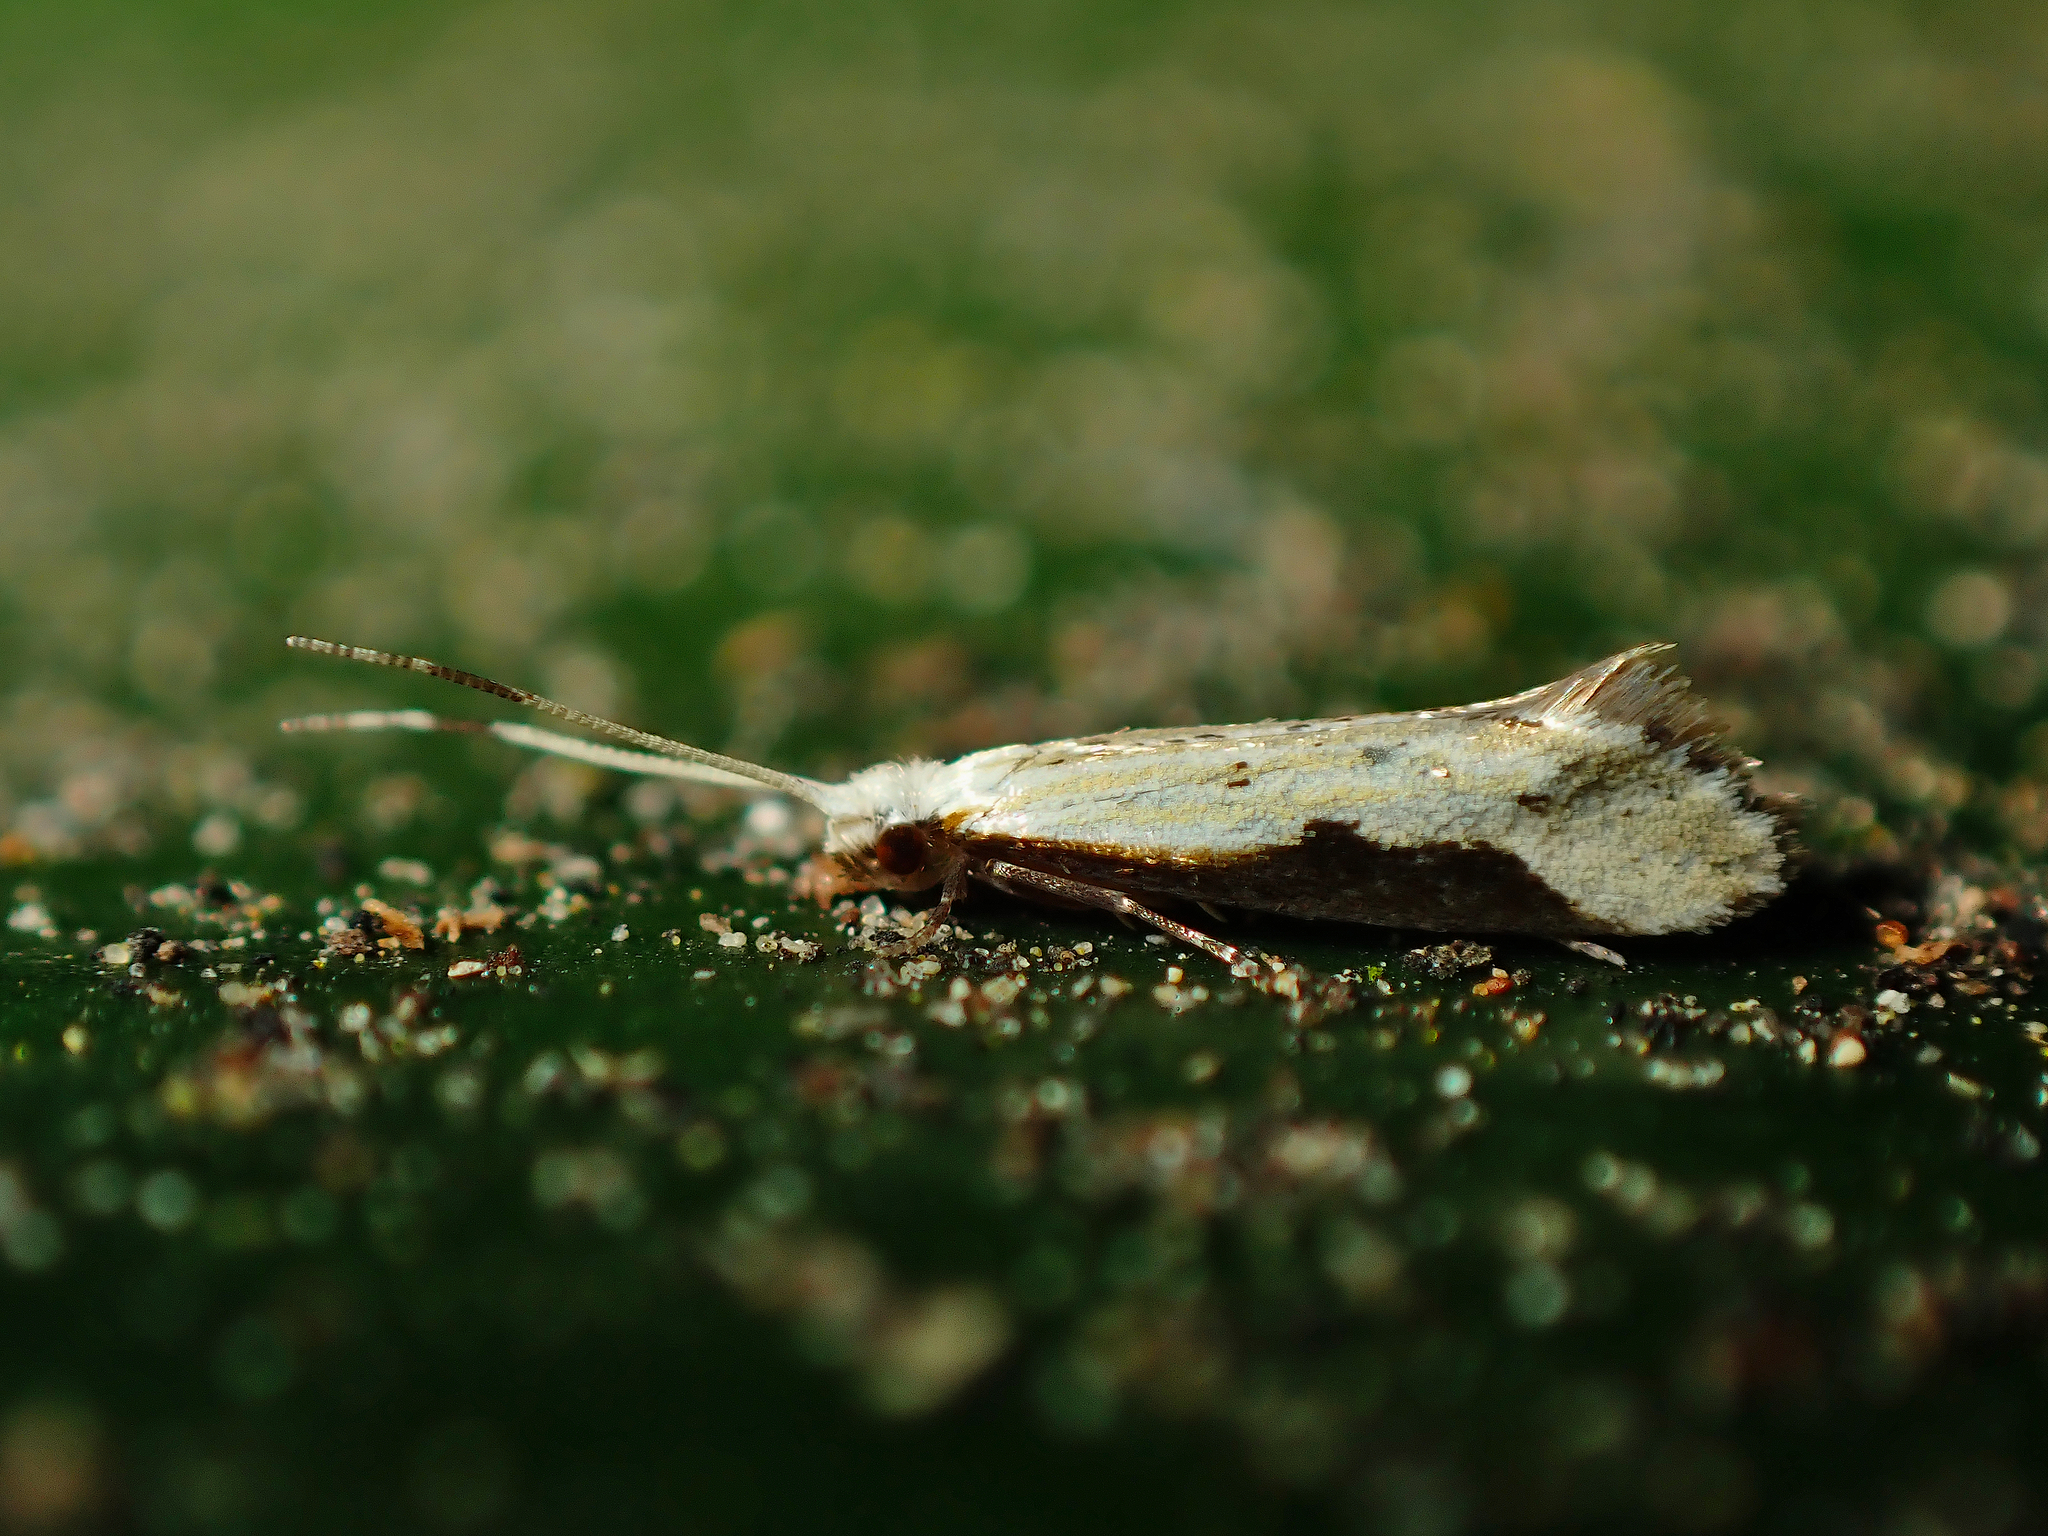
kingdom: Animalia
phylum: Arthropoda
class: Insecta
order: Lepidoptera
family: Tineidae
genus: Sagephora
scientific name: Sagephora phortegella
